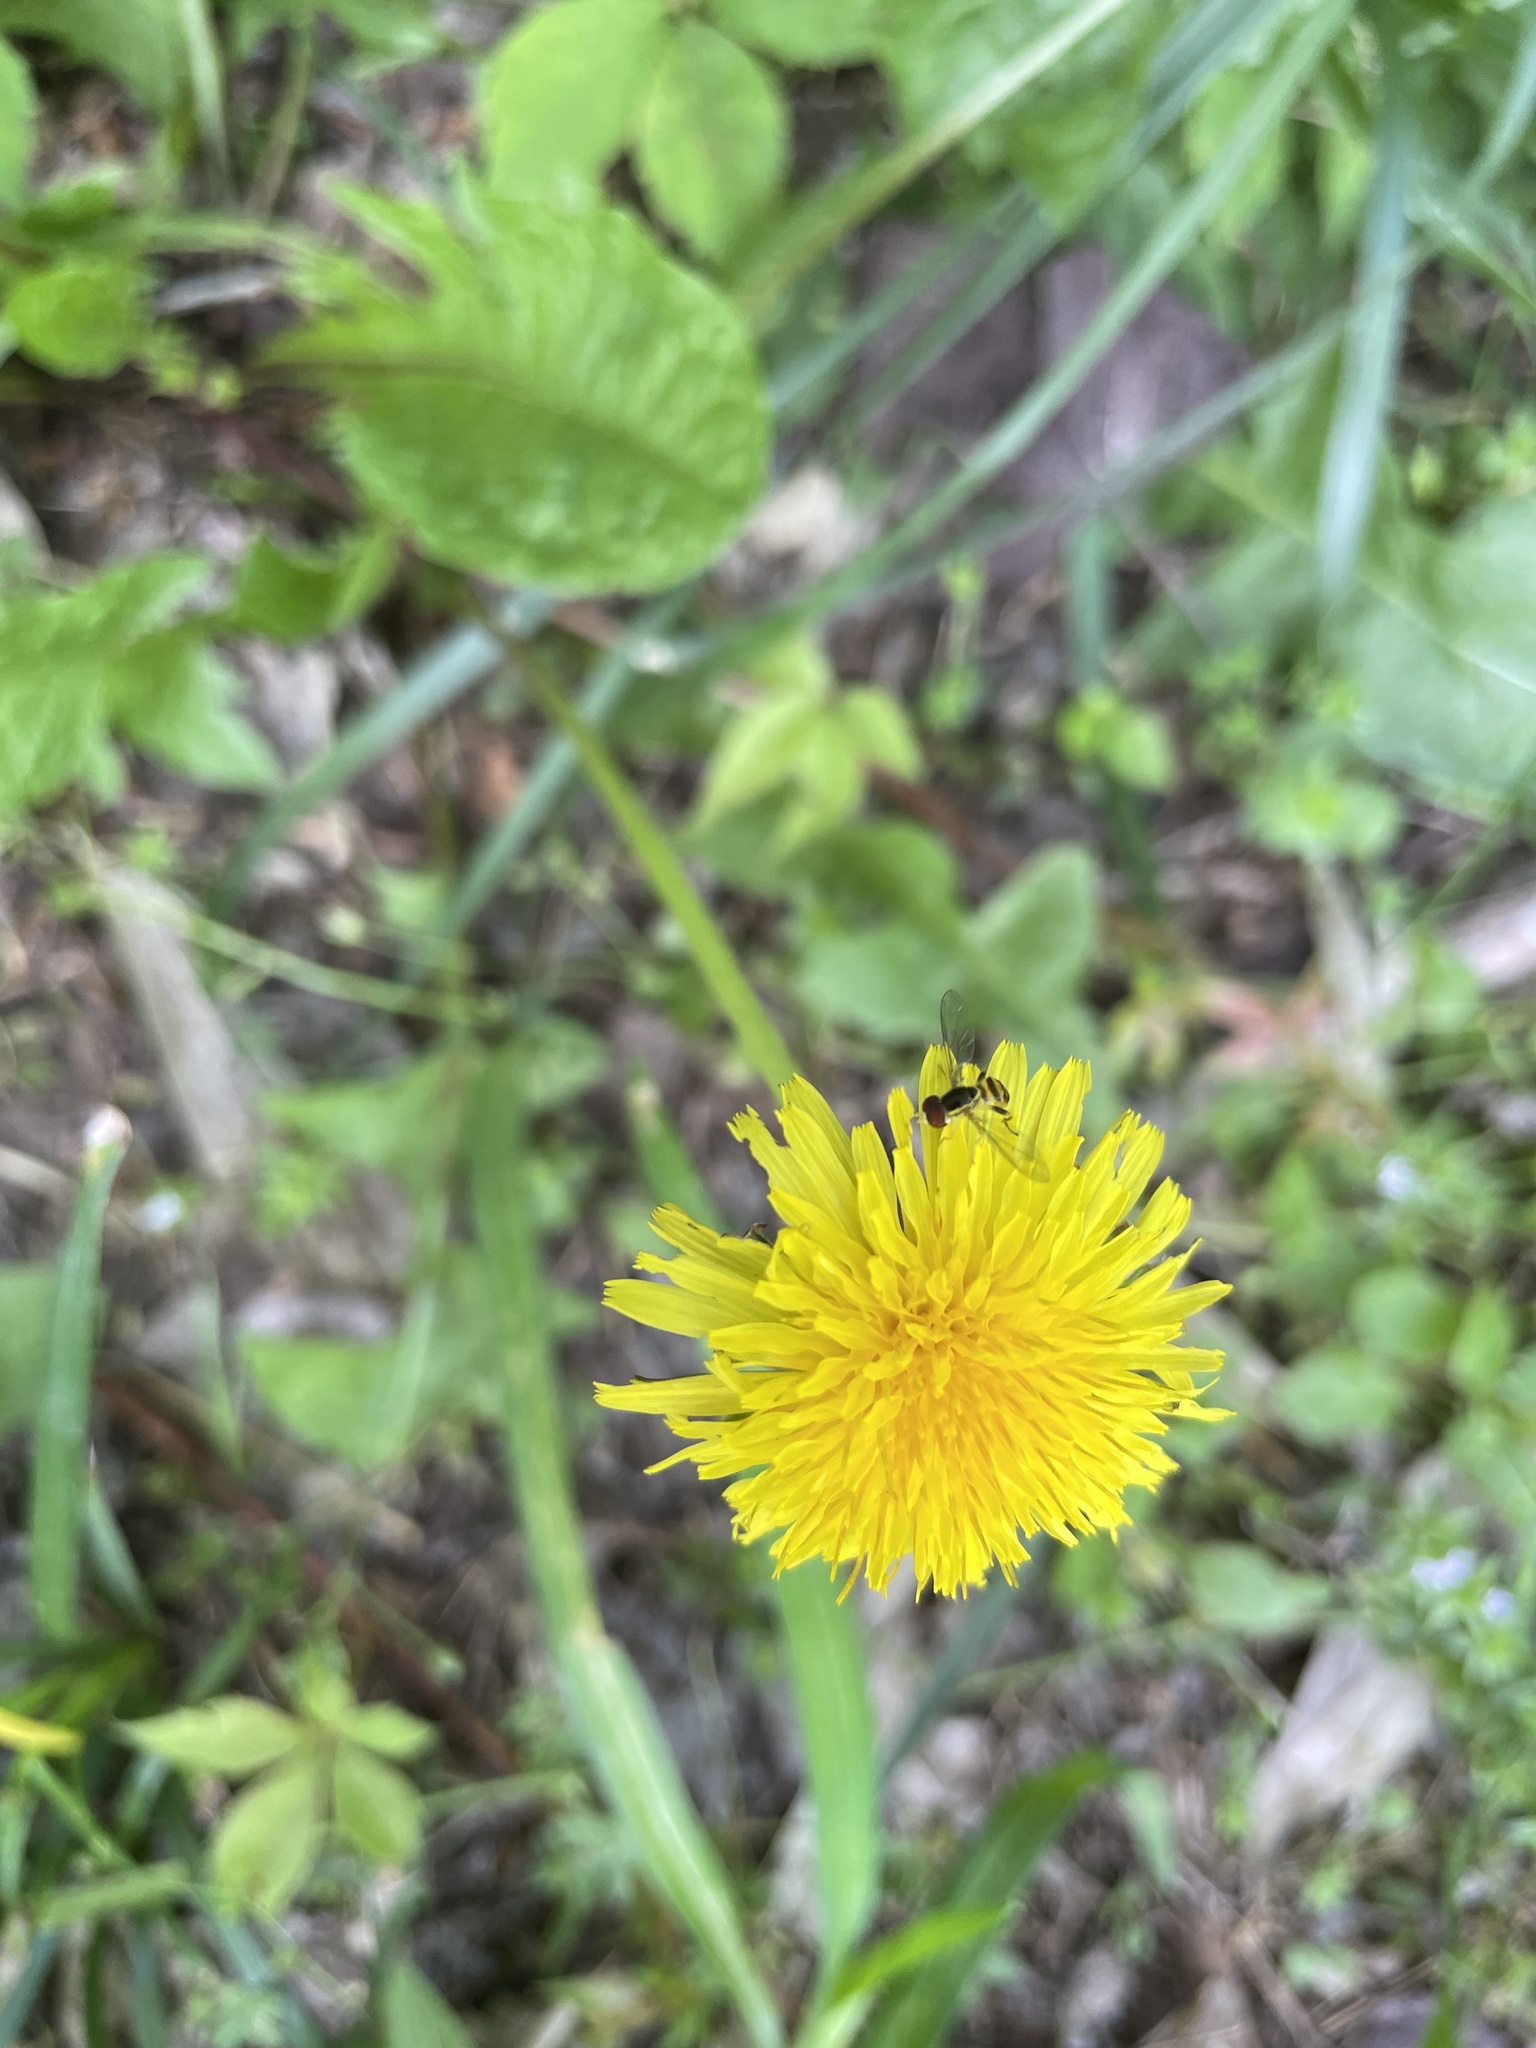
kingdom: Animalia
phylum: Arthropoda
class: Insecta
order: Diptera
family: Syrphidae
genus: Toxomerus
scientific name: Toxomerus geminatus
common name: Eastern calligrapher
